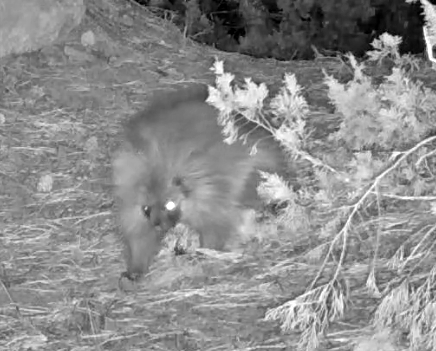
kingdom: Animalia
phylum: Chordata
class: Mammalia
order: Rodentia
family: Erethizontidae
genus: Erethizon
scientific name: Erethizon dorsatus
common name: North american porcupine
